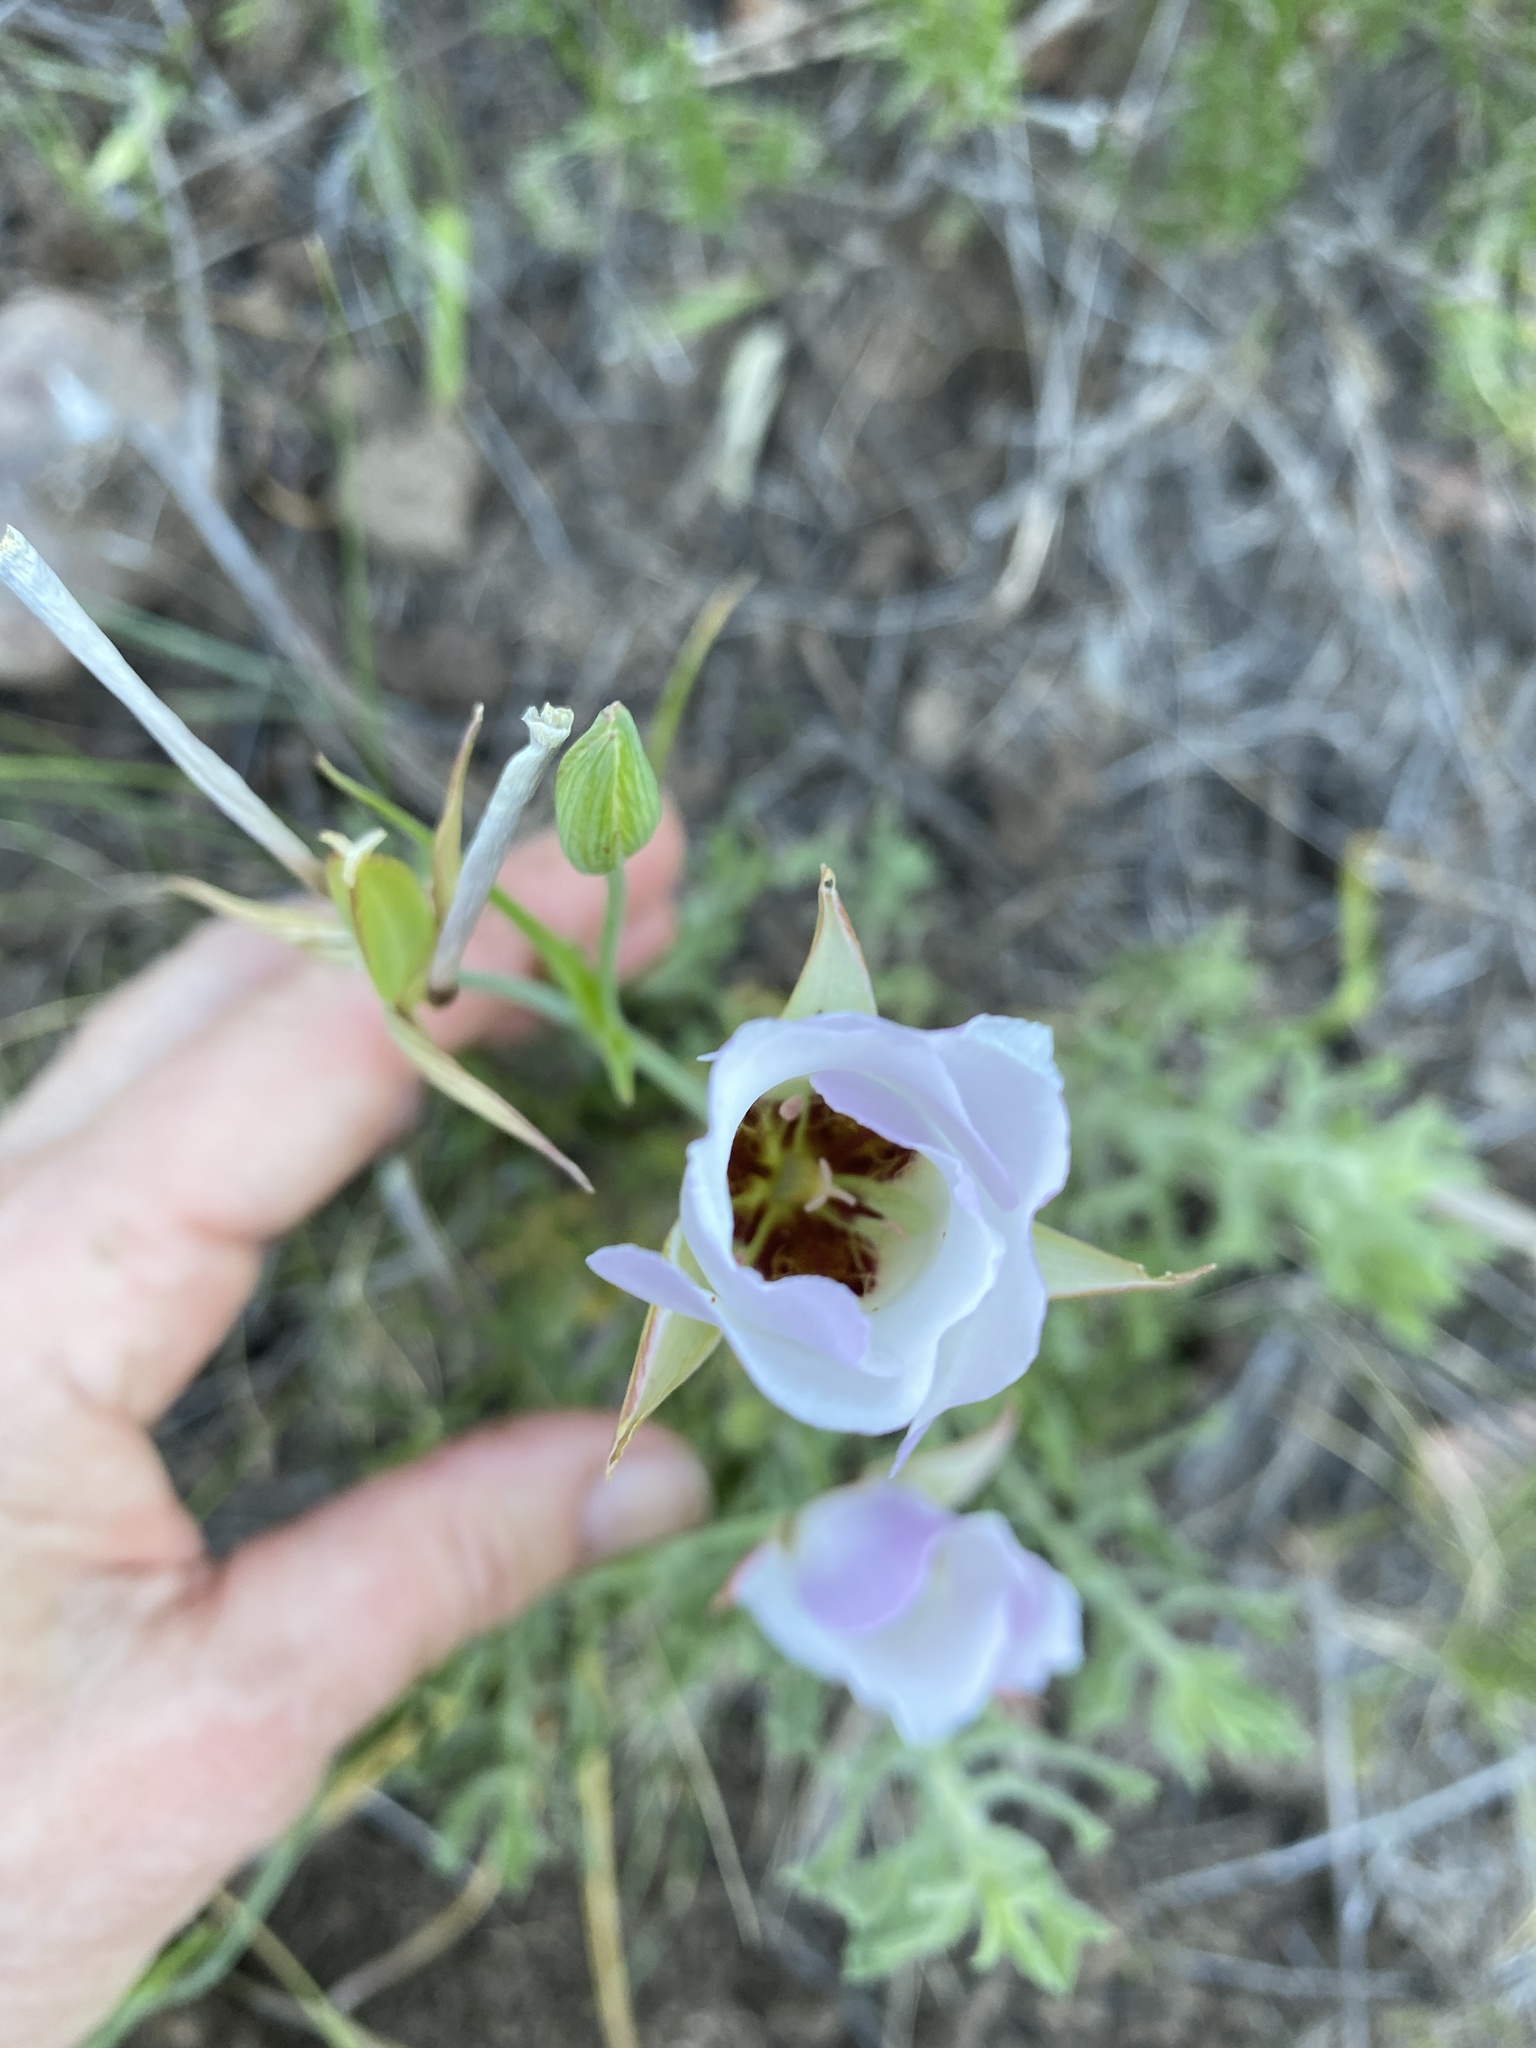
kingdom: Plantae
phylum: Tracheophyta
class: Liliopsida
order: Liliales
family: Liliaceae
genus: Calochortus
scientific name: Calochortus catalinae
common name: Catalina mariposa-lily
